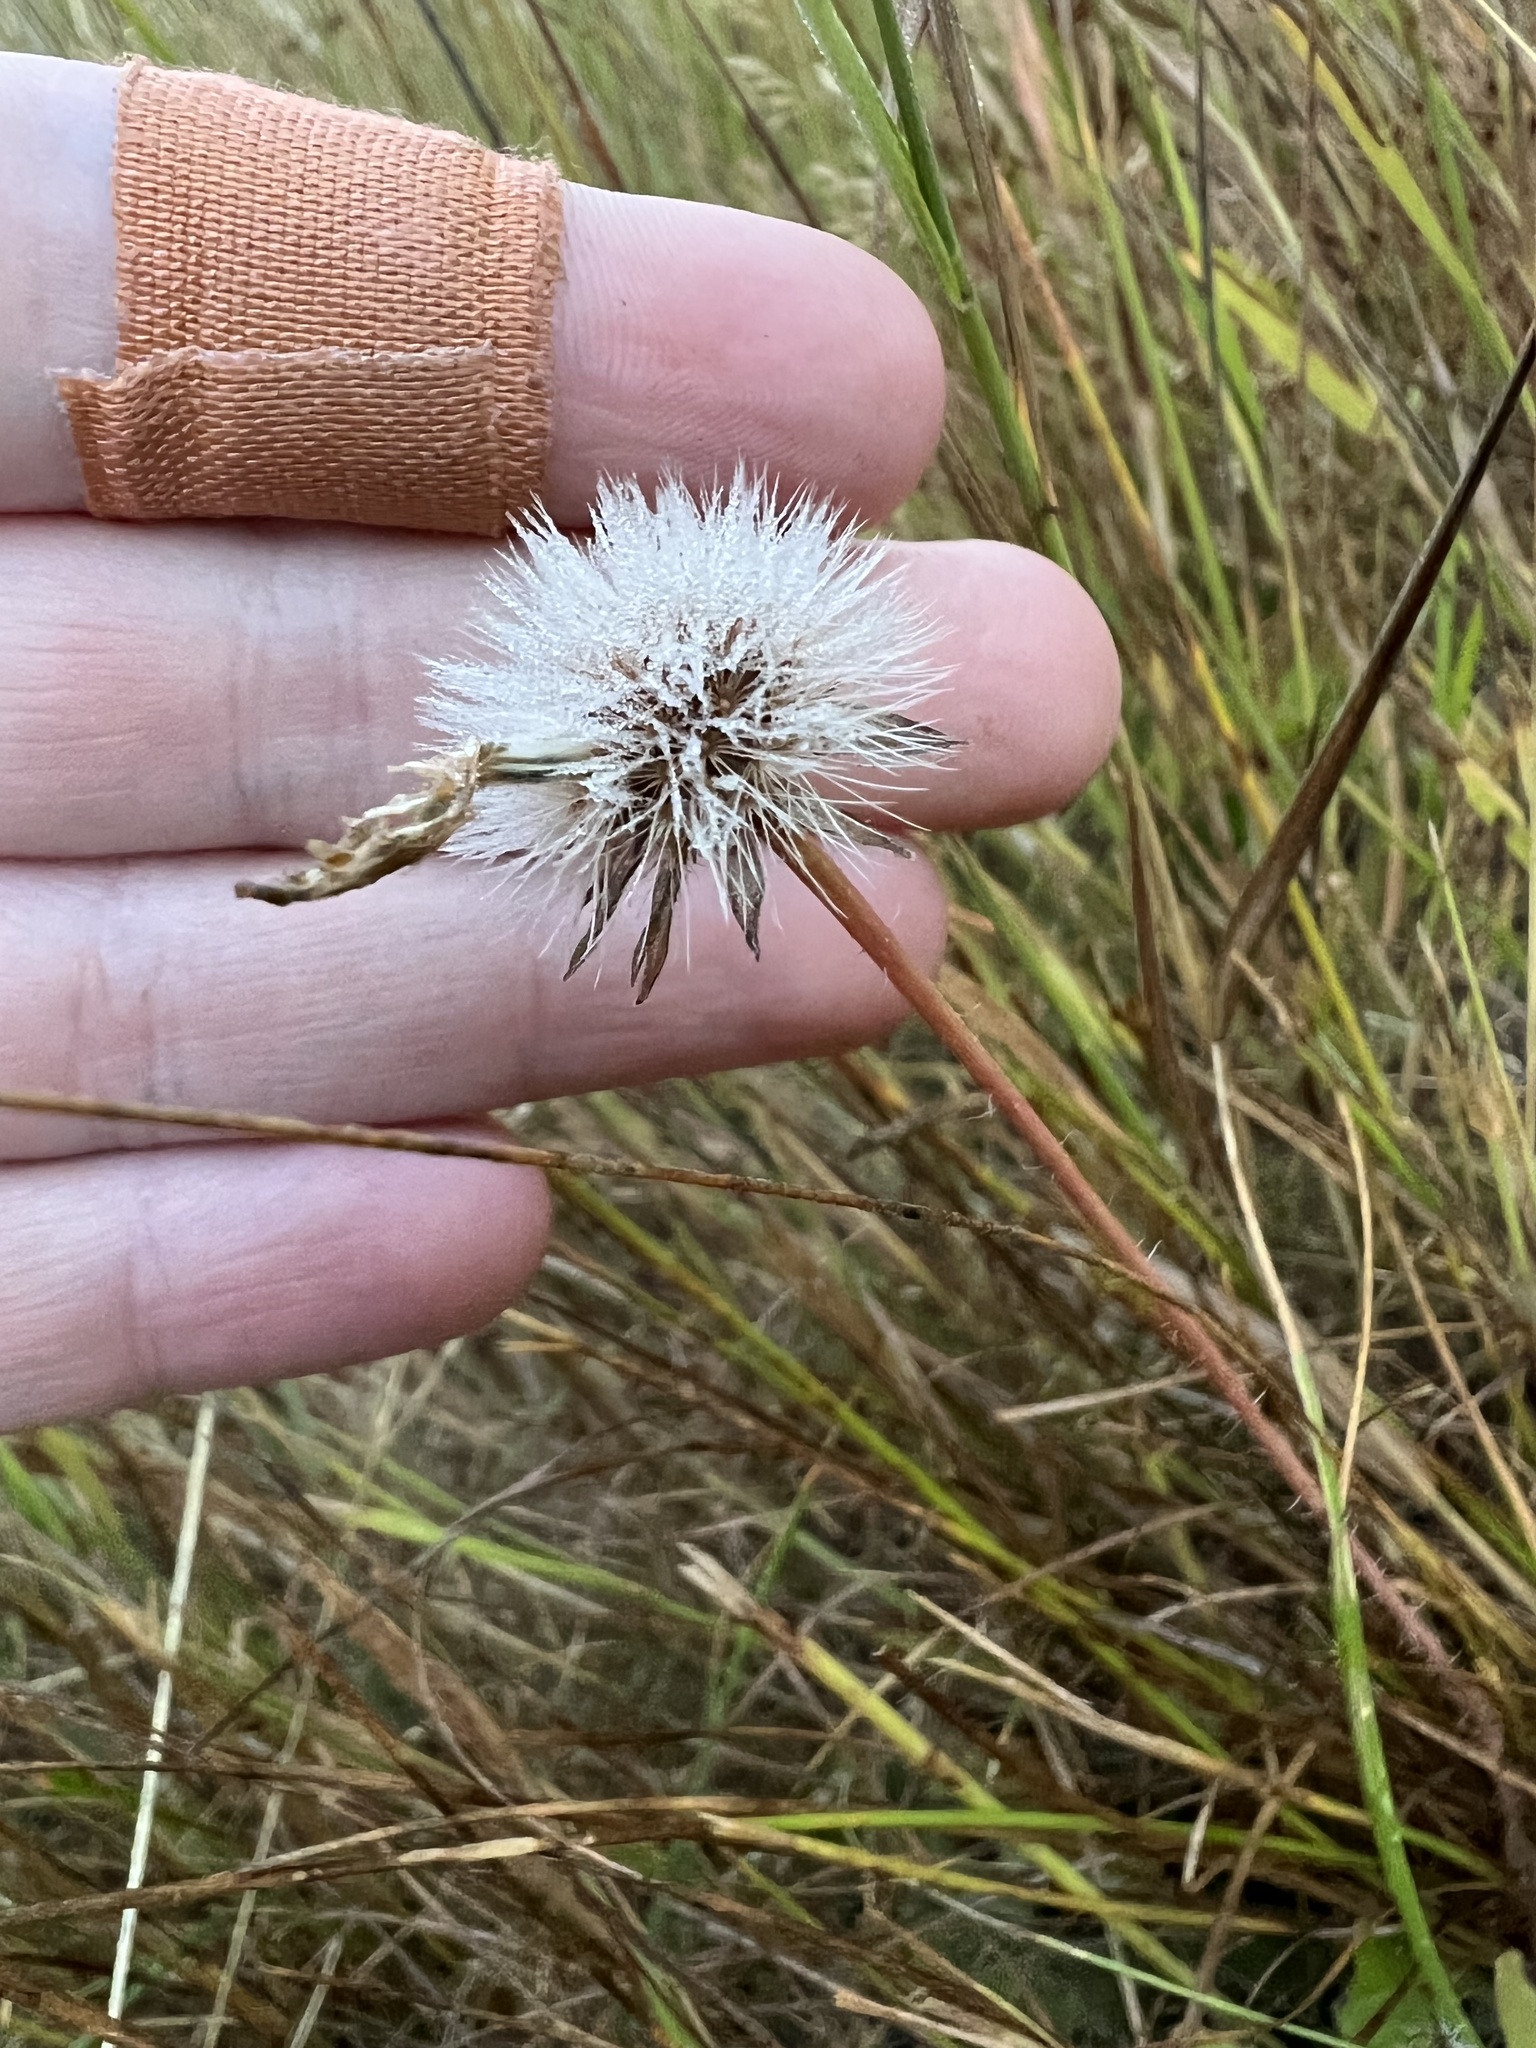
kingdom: Plantae
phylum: Tracheophyta
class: Magnoliopsida
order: Asterales
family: Asteraceae
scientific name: Asteraceae
